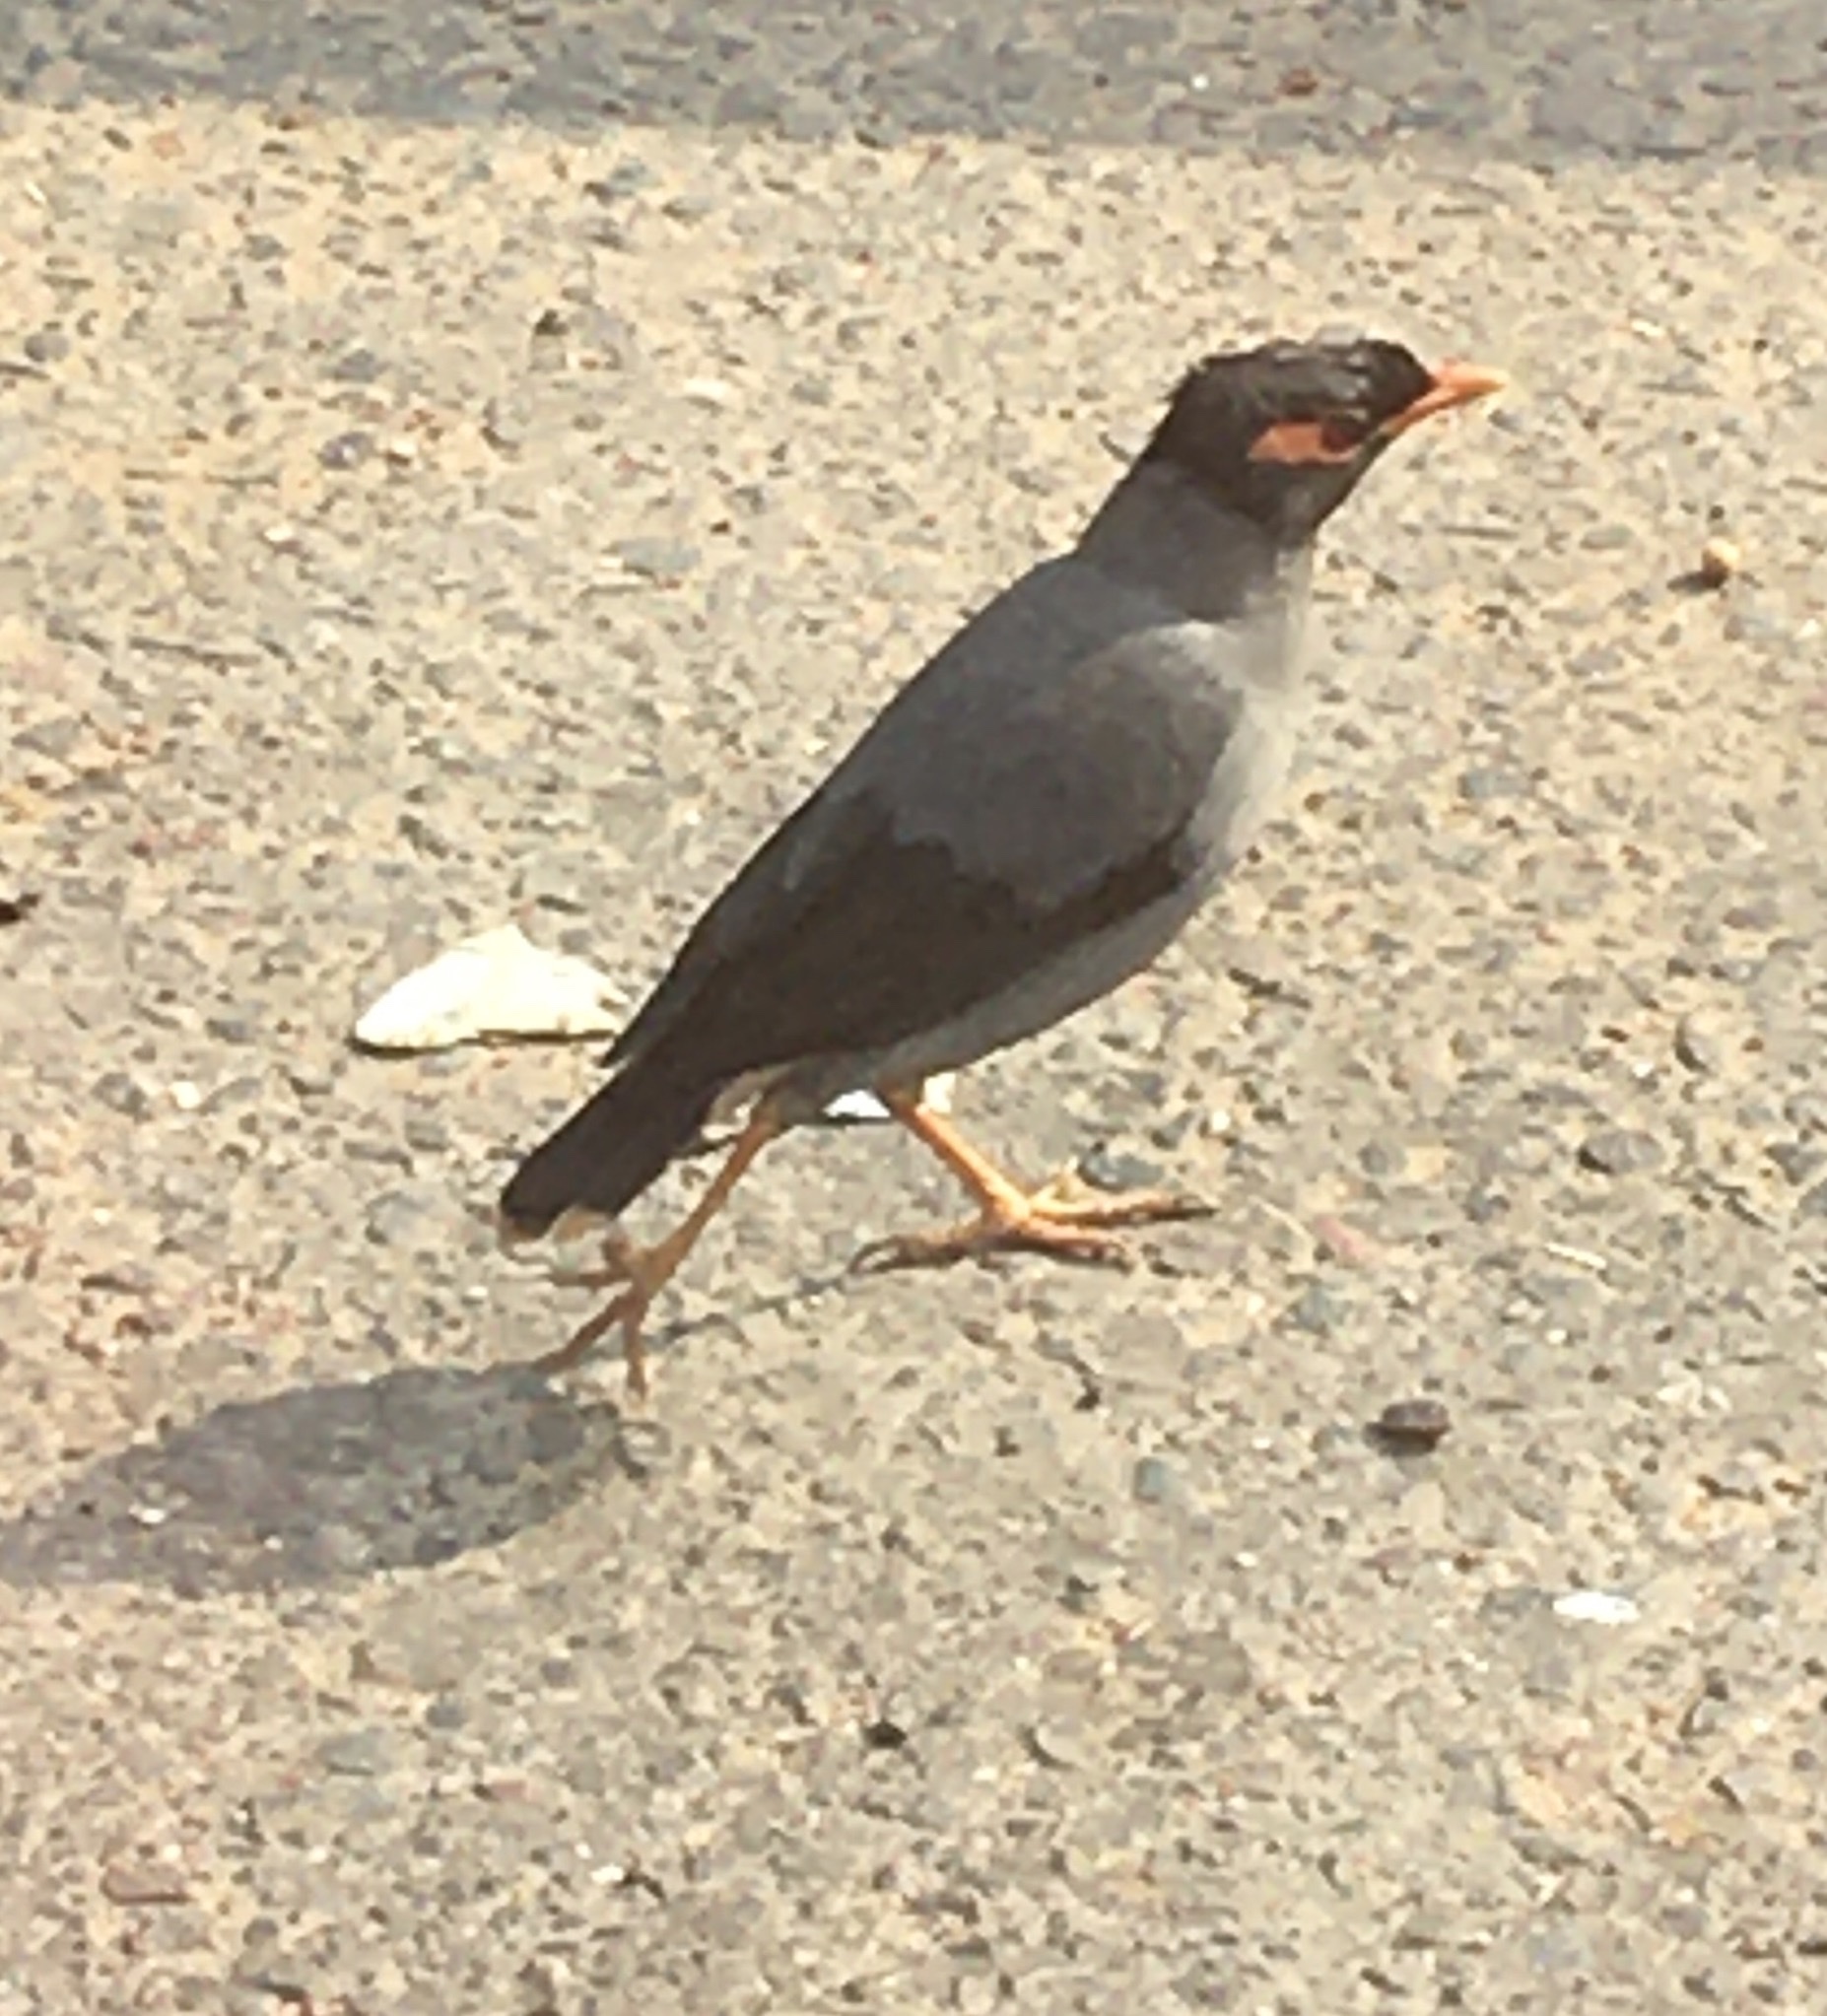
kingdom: Animalia
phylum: Chordata
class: Aves
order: Passeriformes
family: Sturnidae
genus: Acridotheres
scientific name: Acridotheres ginginianus
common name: Bank myna
